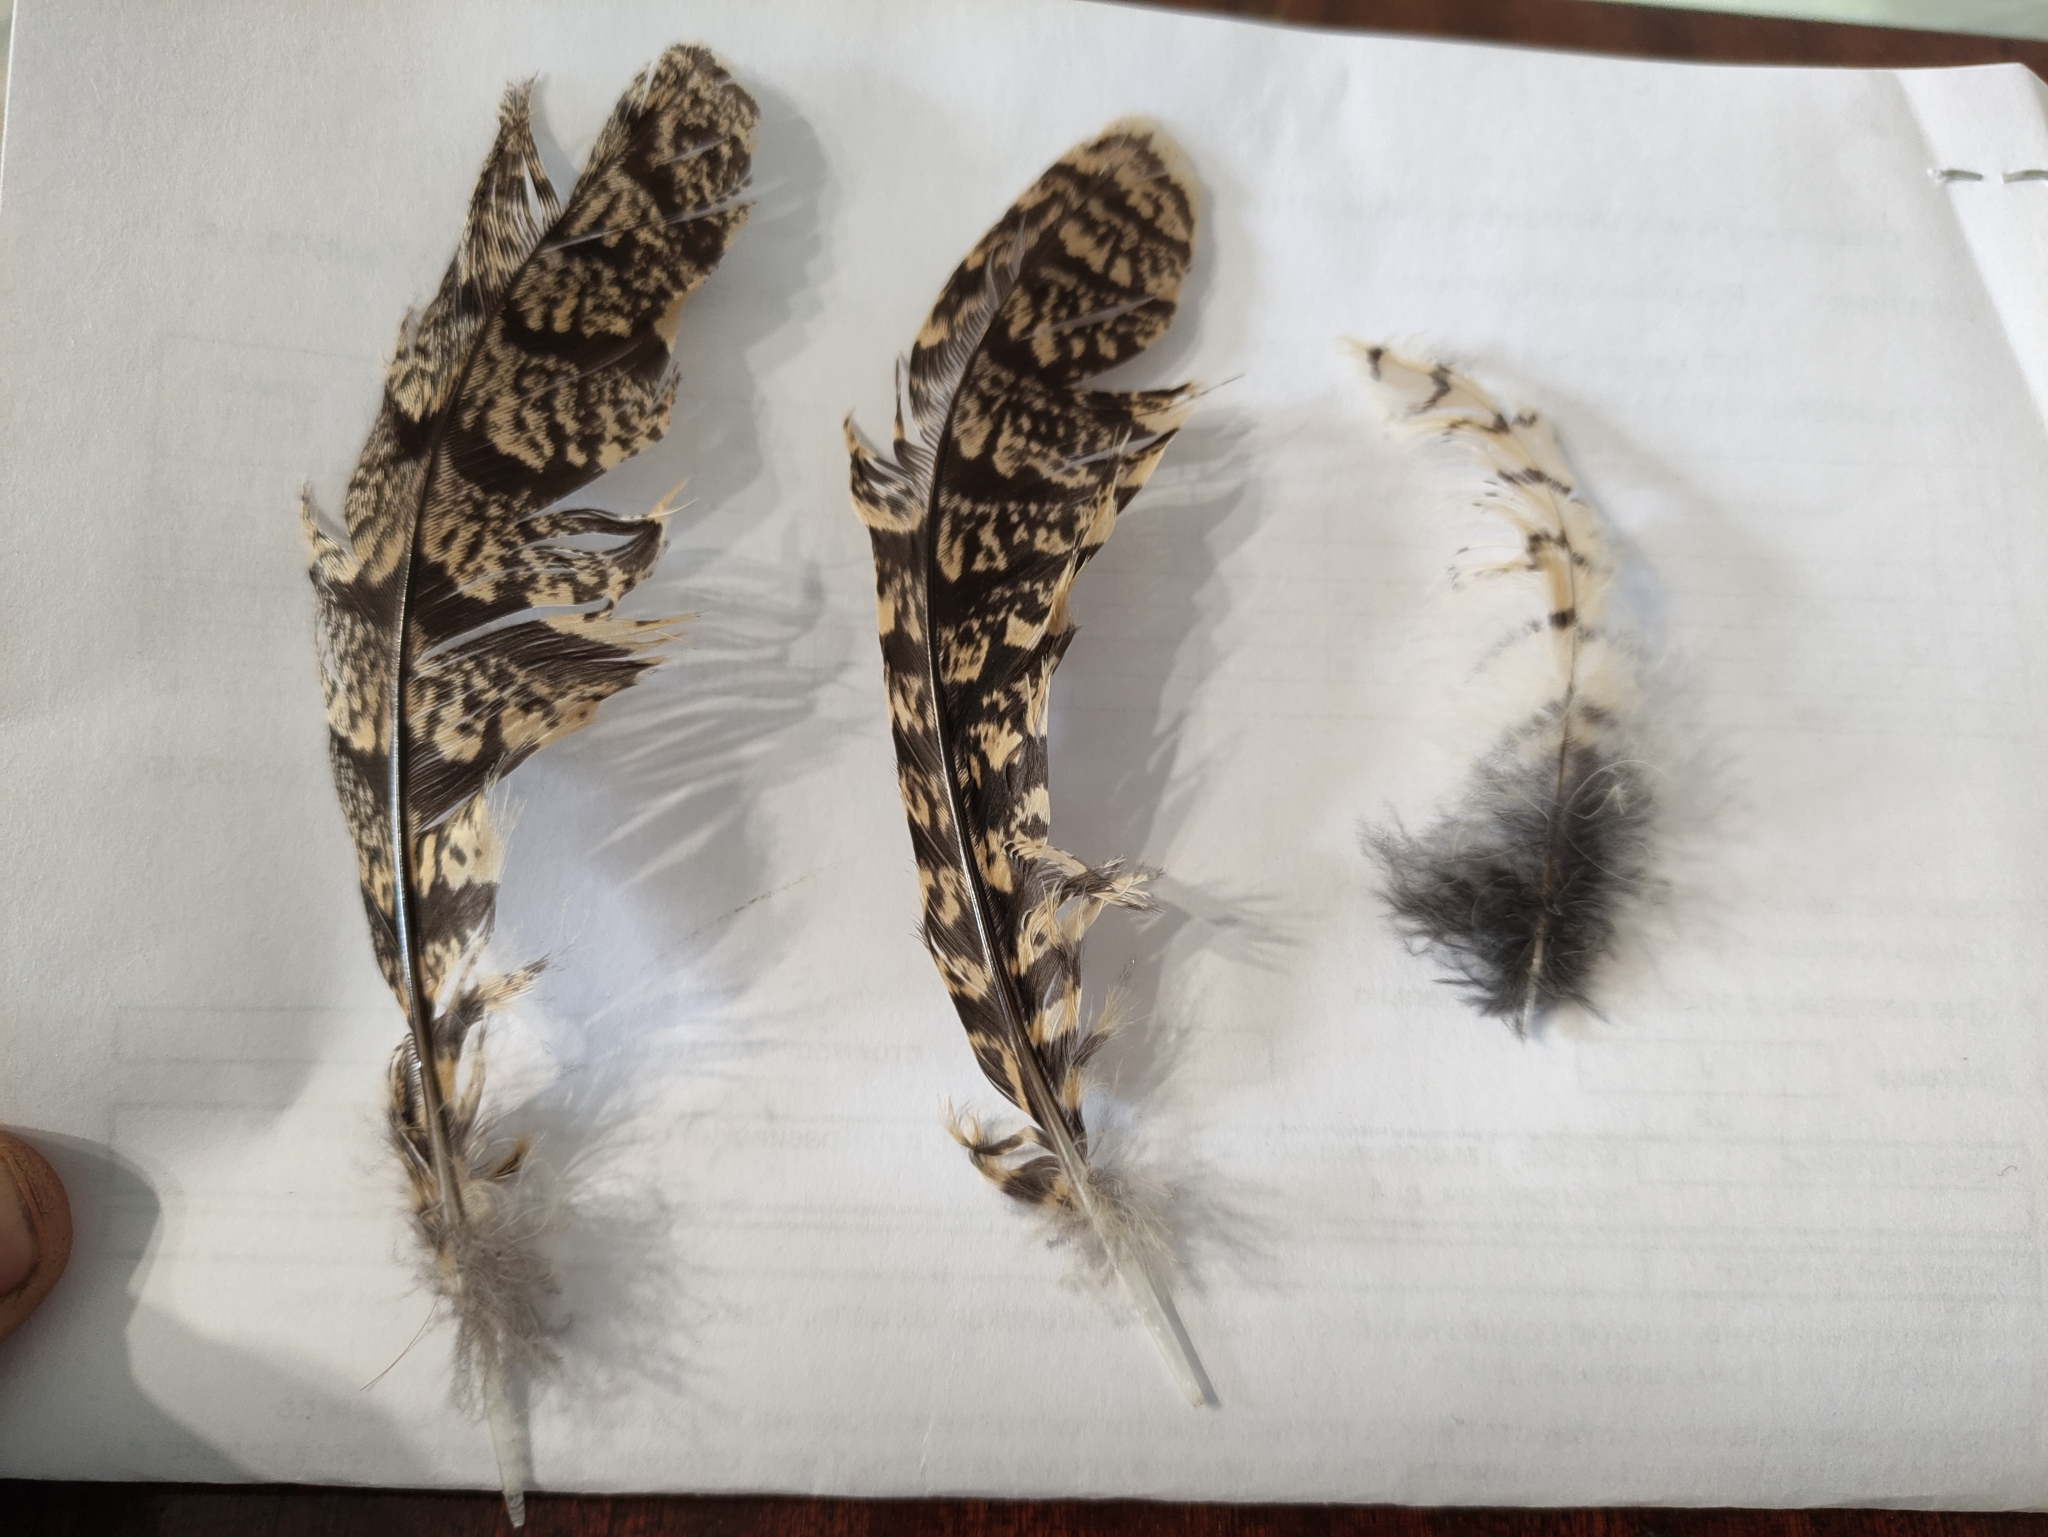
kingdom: Animalia
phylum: Chordata
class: Aves
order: Caprimulgiformes
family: Caprimulgidae
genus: Caprimulgus
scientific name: Caprimulgus europaeus
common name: European nightjar
